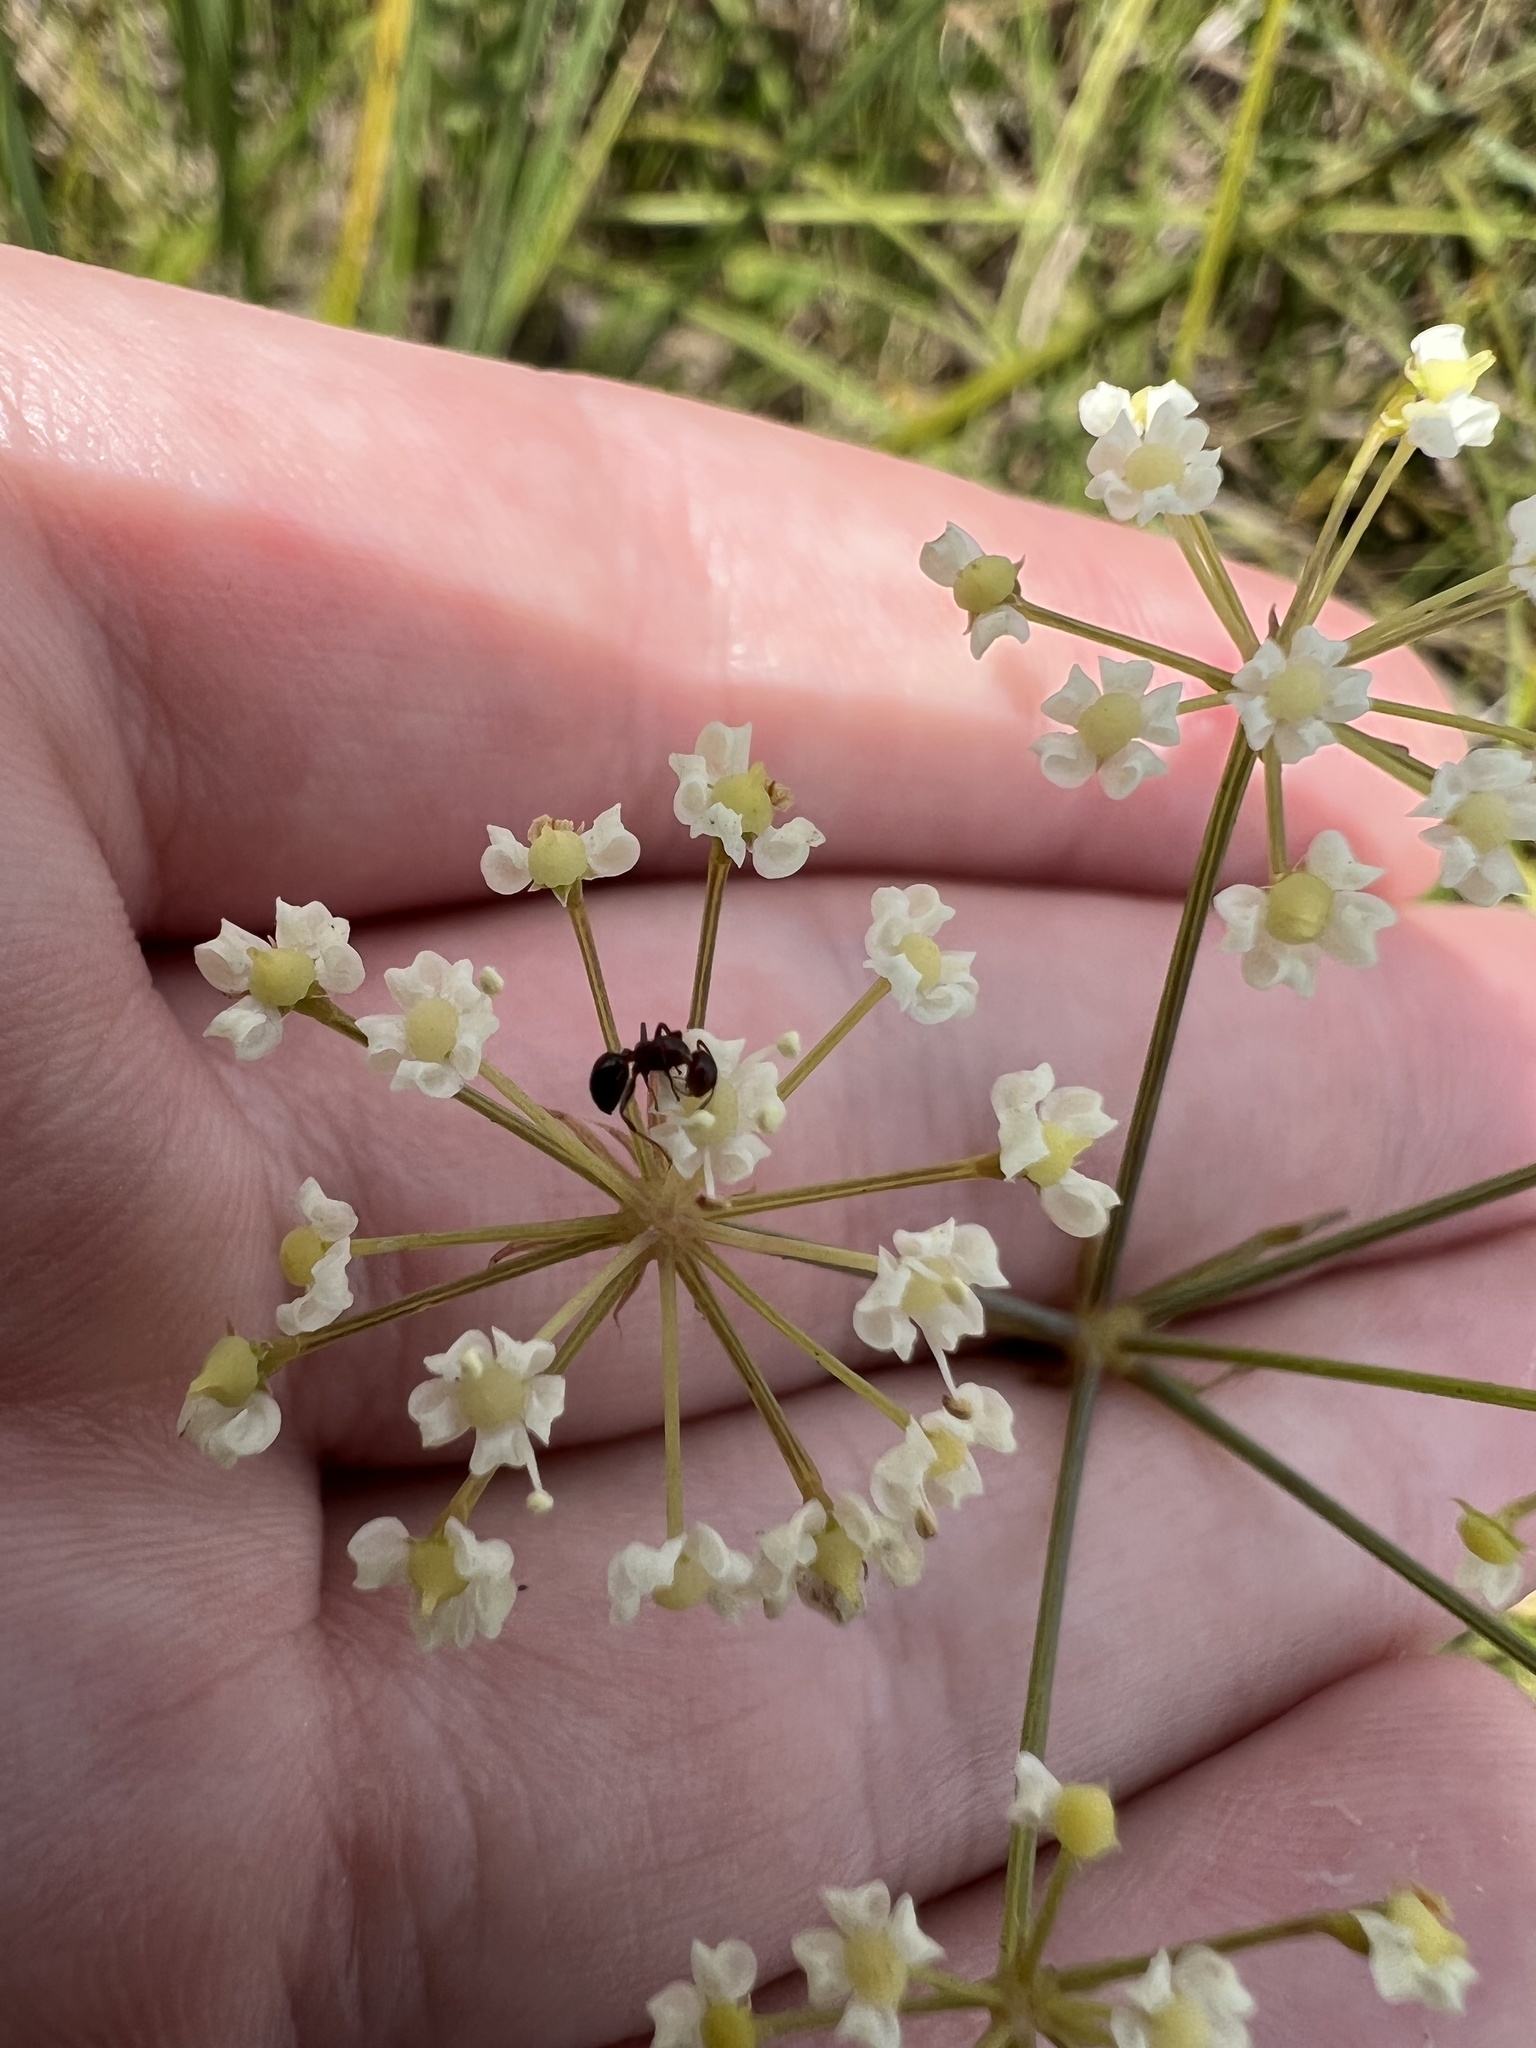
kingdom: Plantae
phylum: Tracheophyta
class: Magnoliopsida
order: Apiales
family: Apiaceae
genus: Tiedemannia
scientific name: Tiedemannia filiformis
